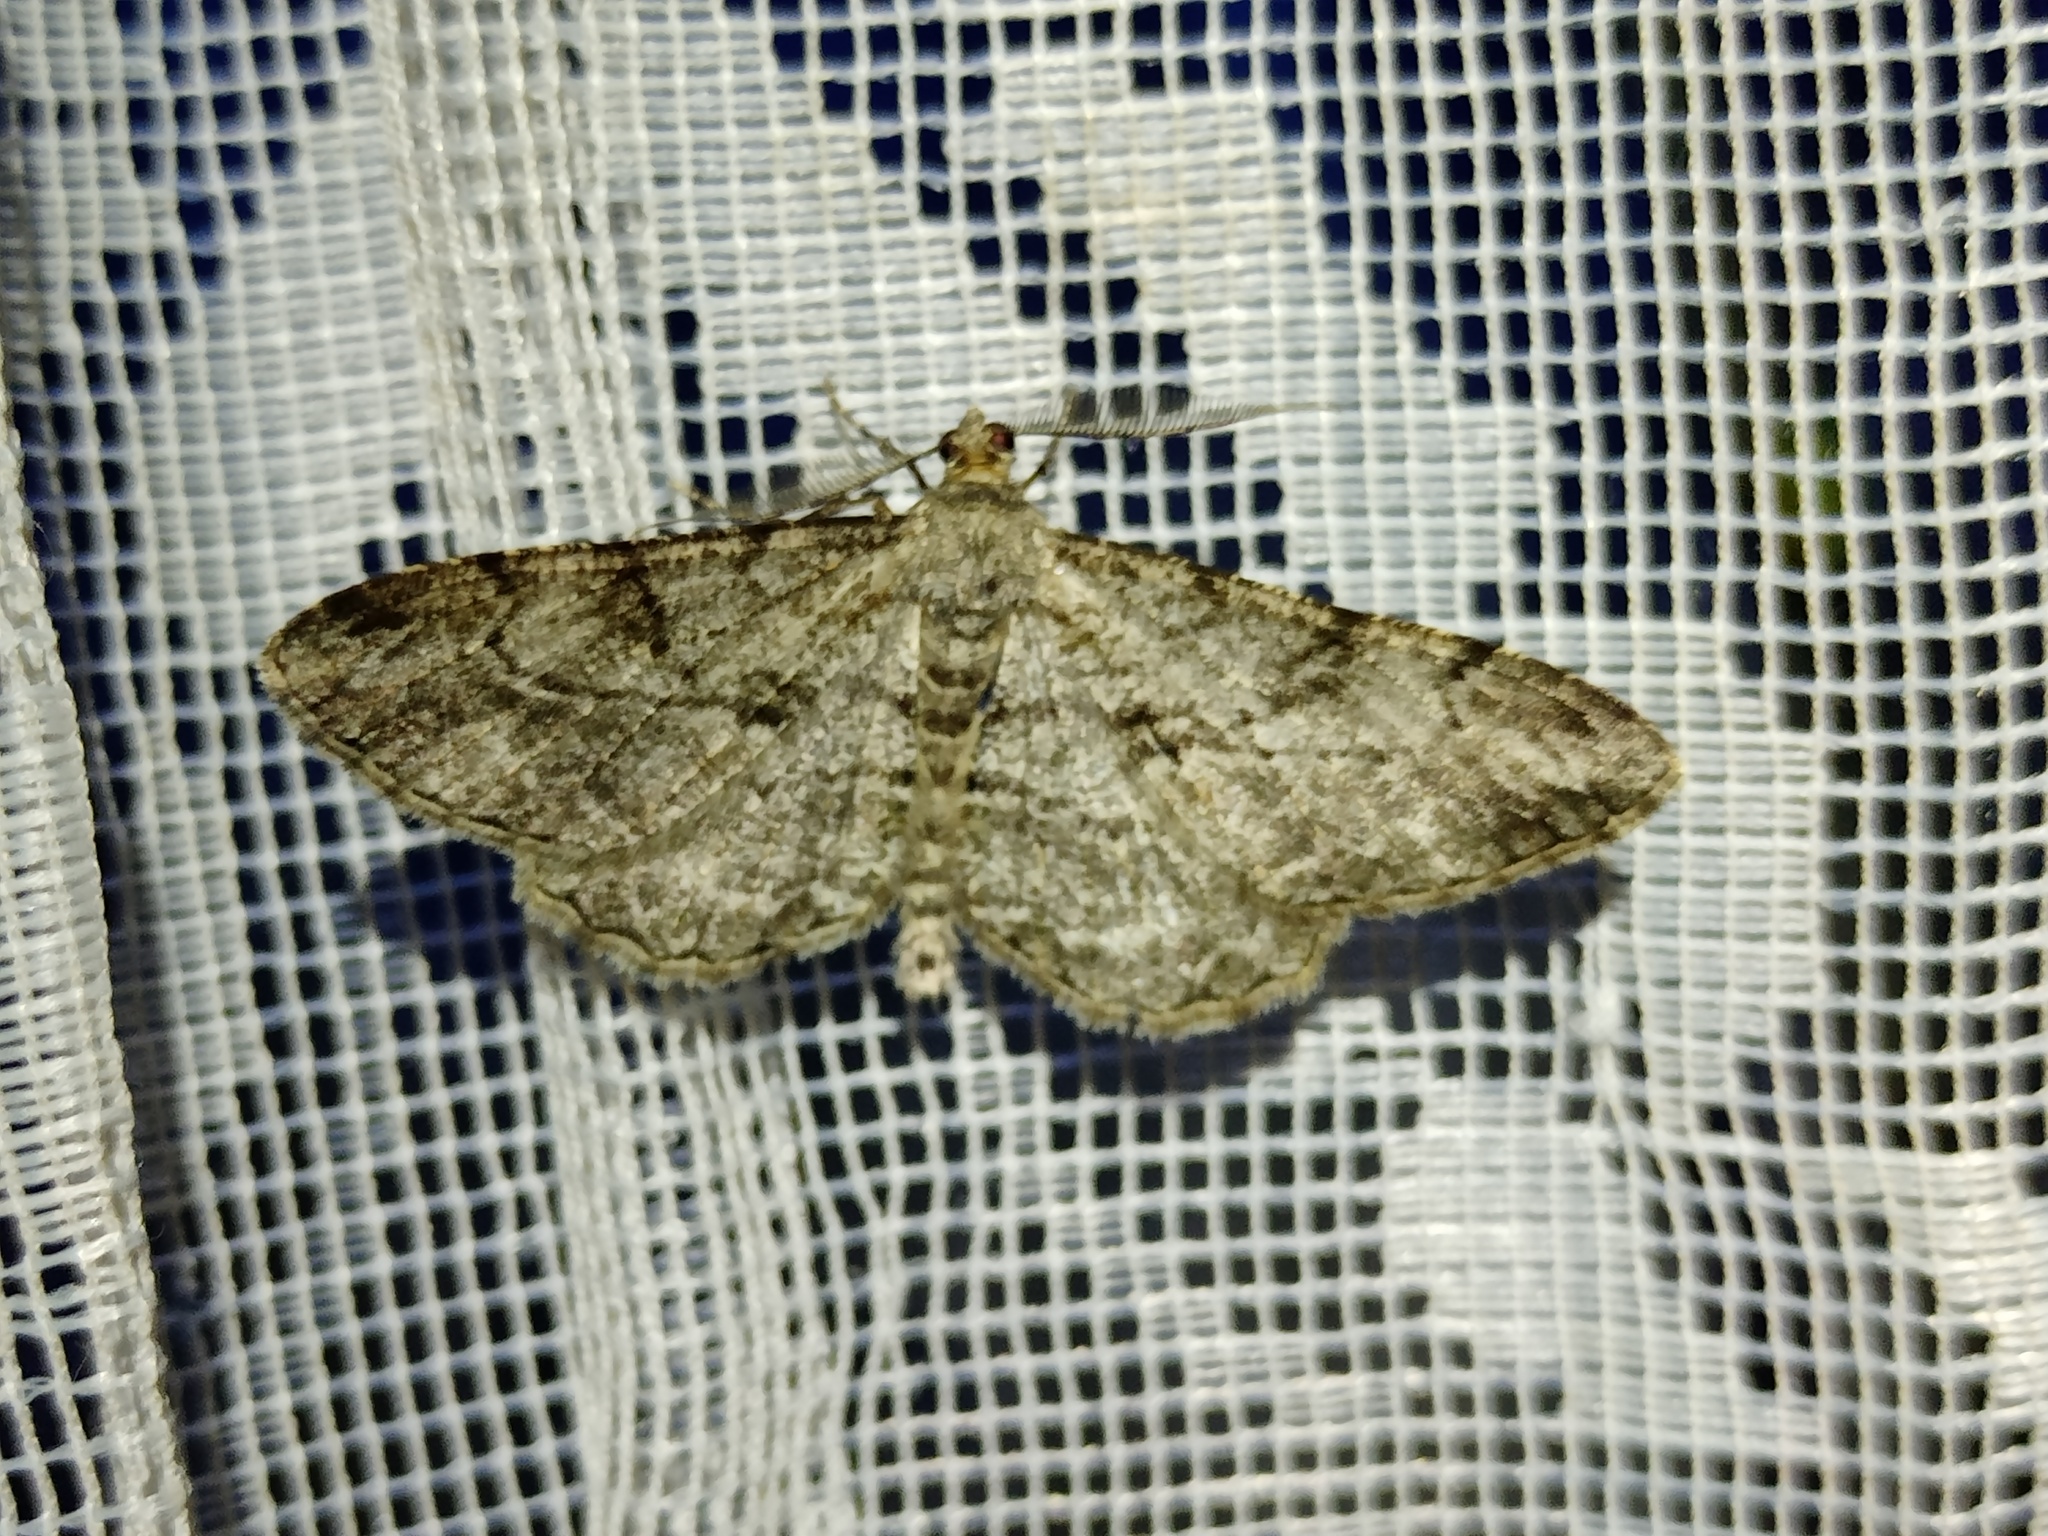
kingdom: Animalia
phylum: Arthropoda
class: Insecta
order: Lepidoptera
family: Geometridae
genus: Peribatodes
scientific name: Peribatodes rhomboidaria
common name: Willow beauty
